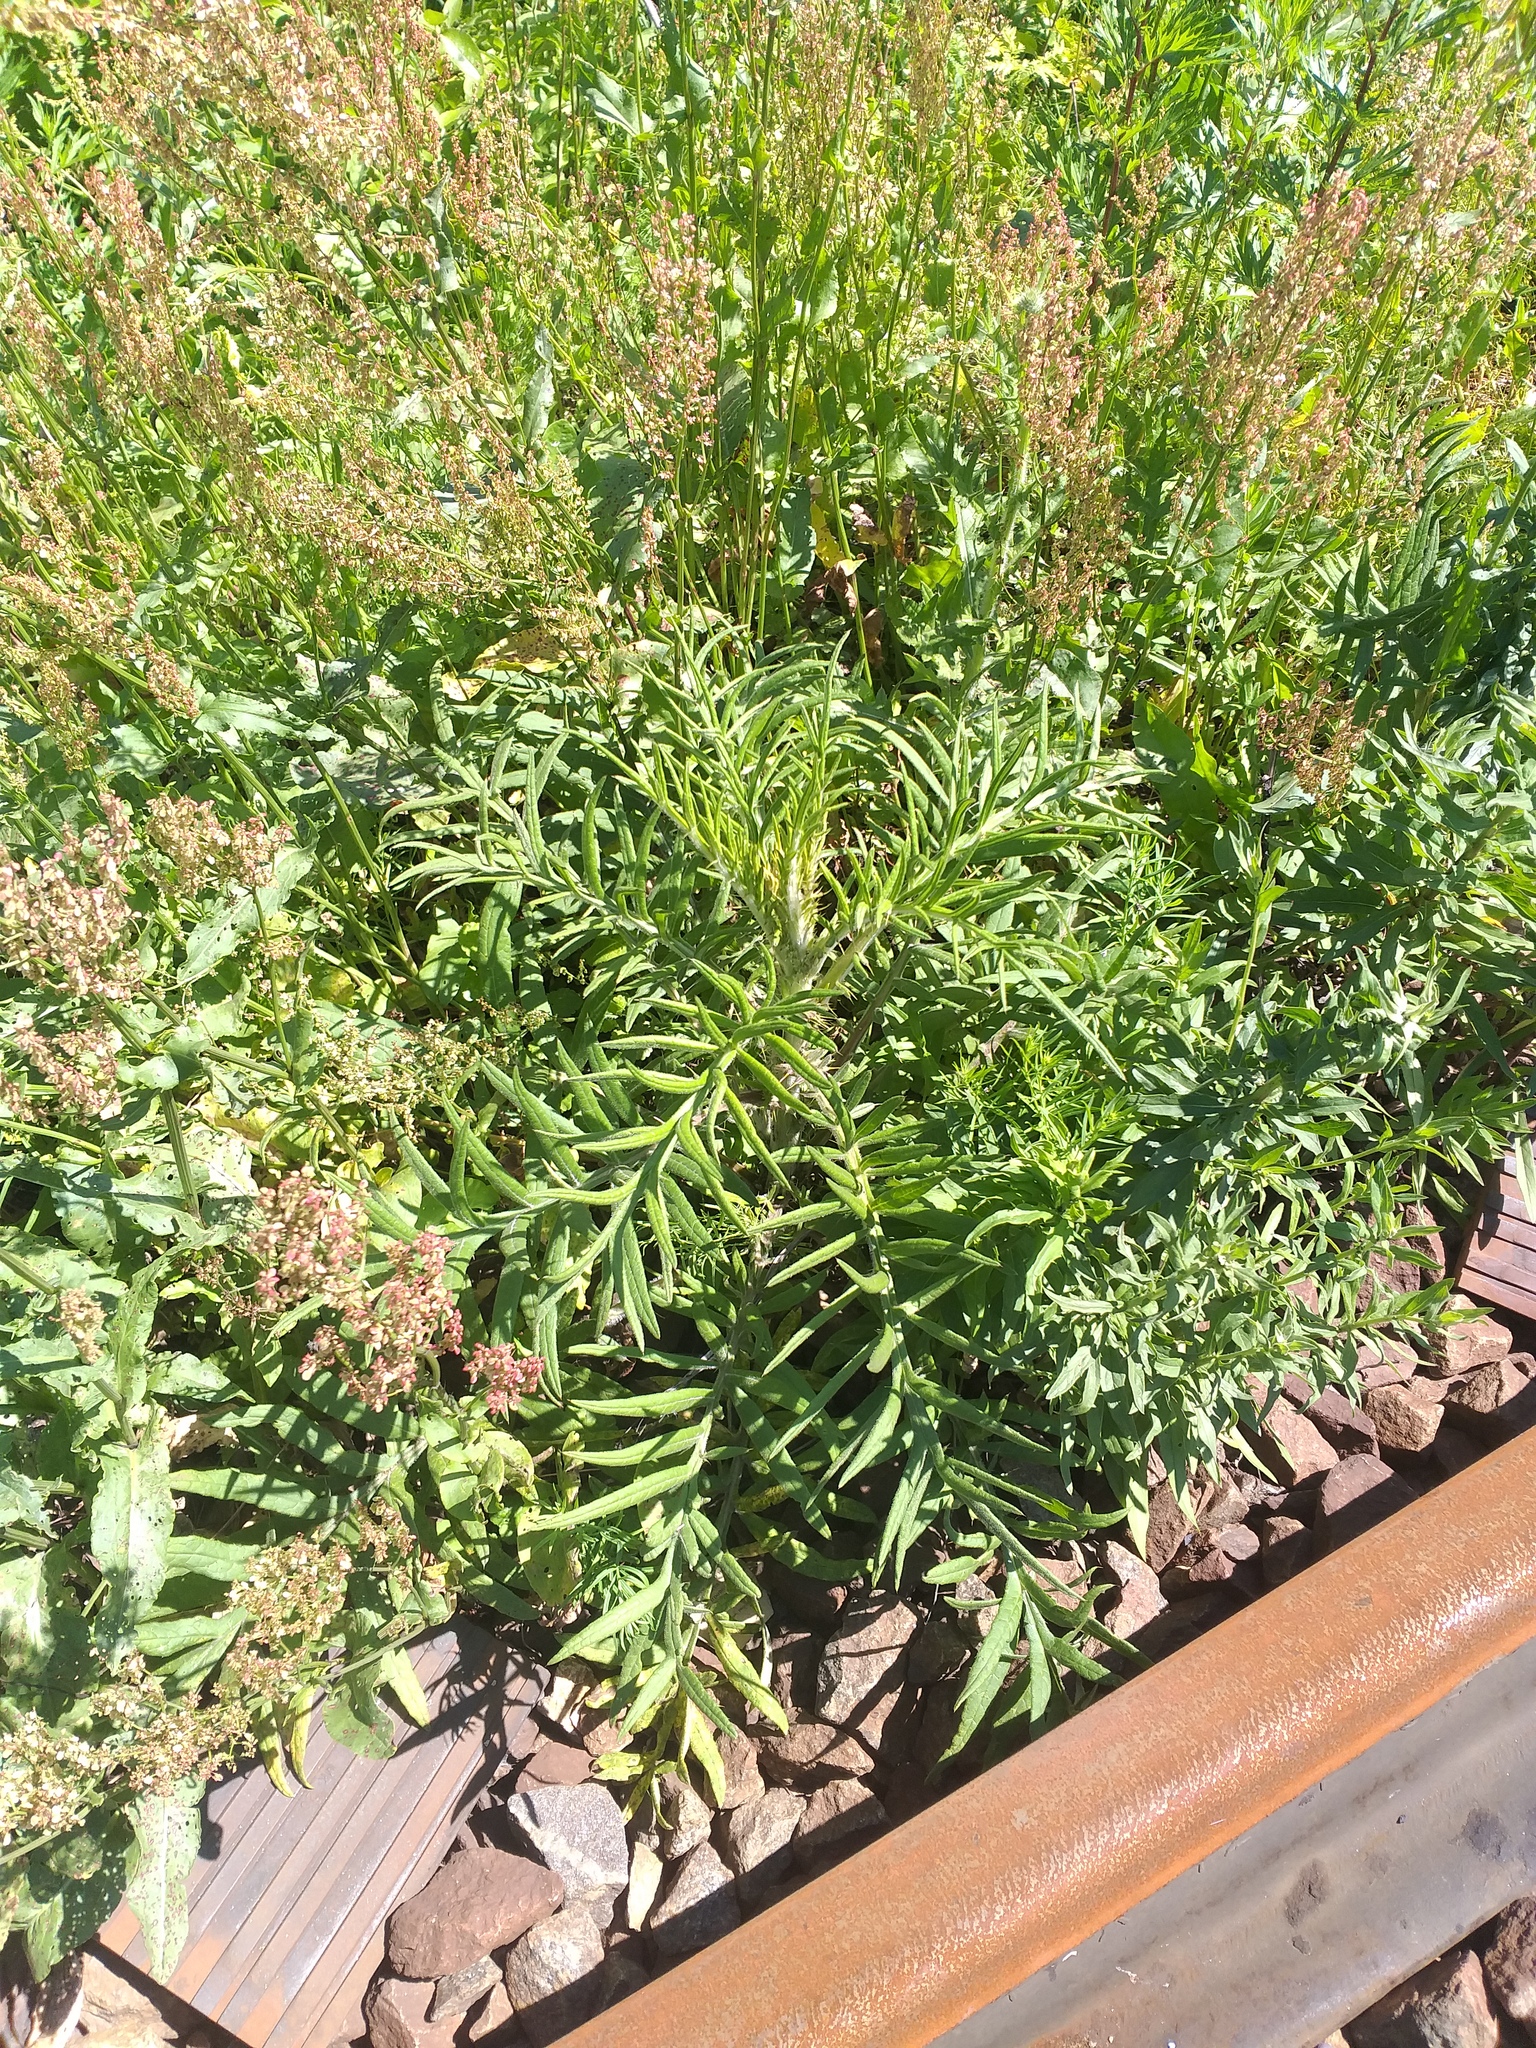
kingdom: Plantae
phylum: Tracheophyta
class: Magnoliopsida
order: Asterales
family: Asteraceae
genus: Lophiolepis
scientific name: Lophiolepis decussata
